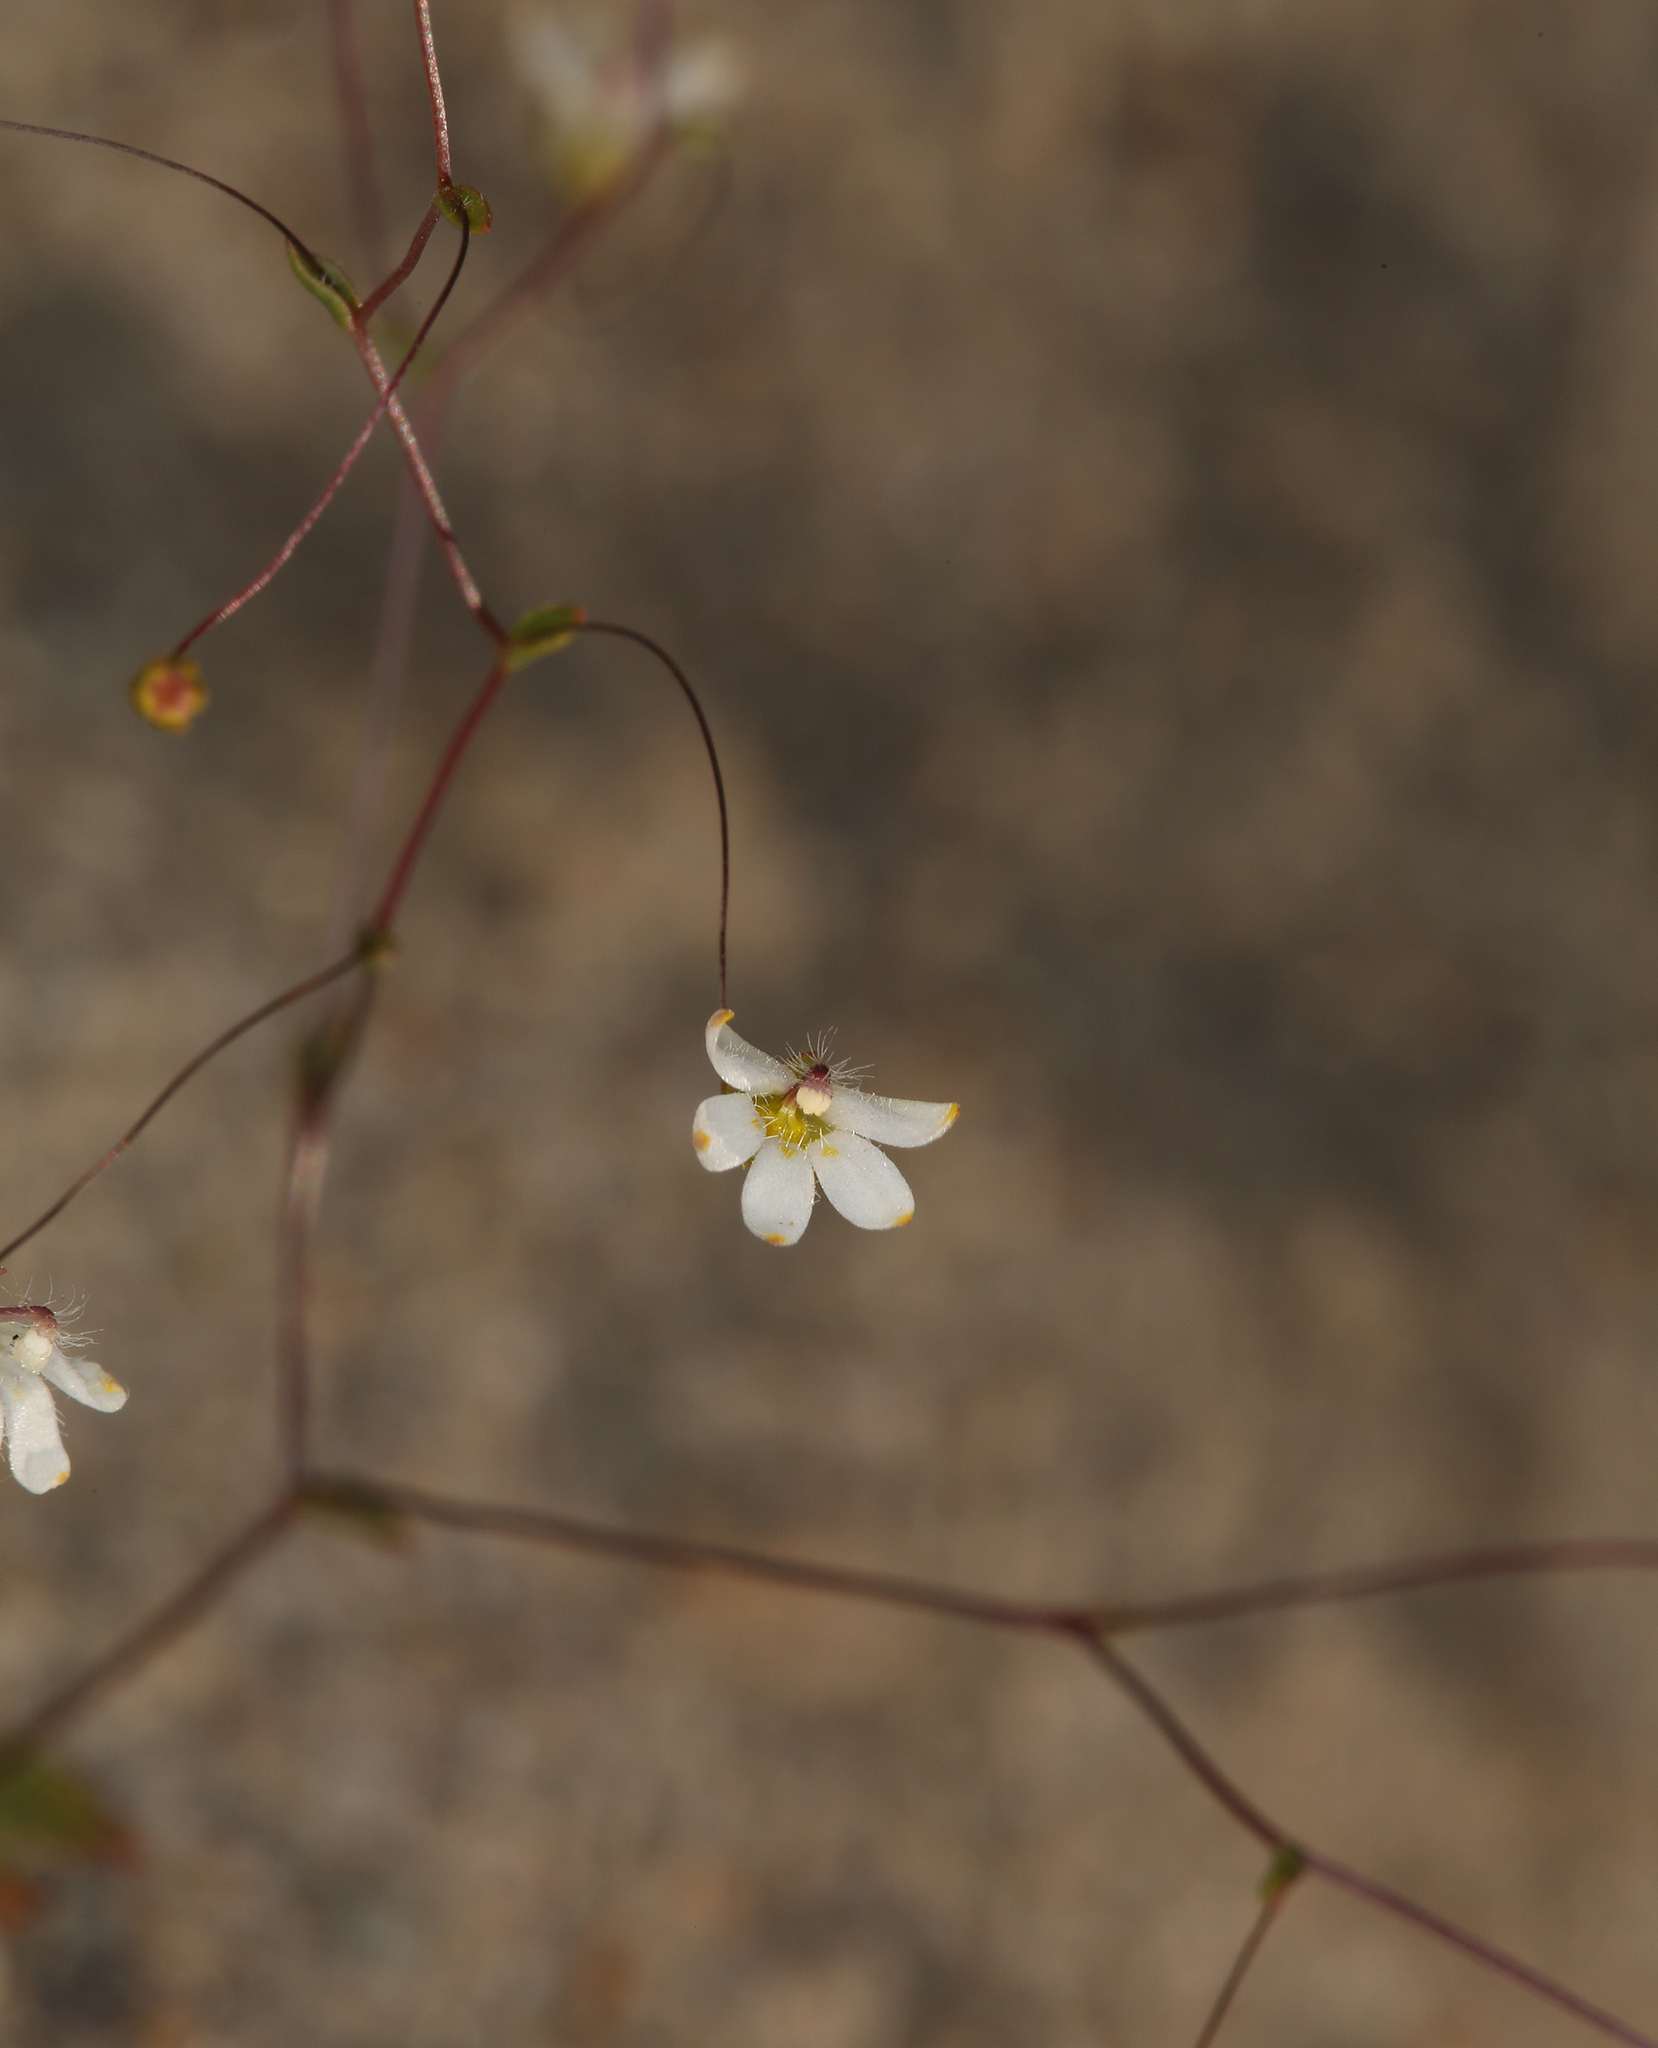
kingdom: Plantae
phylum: Tracheophyta
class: Magnoliopsida
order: Asterales
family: Campanulaceae
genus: Nemacladus
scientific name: Nemacladus matsonii
